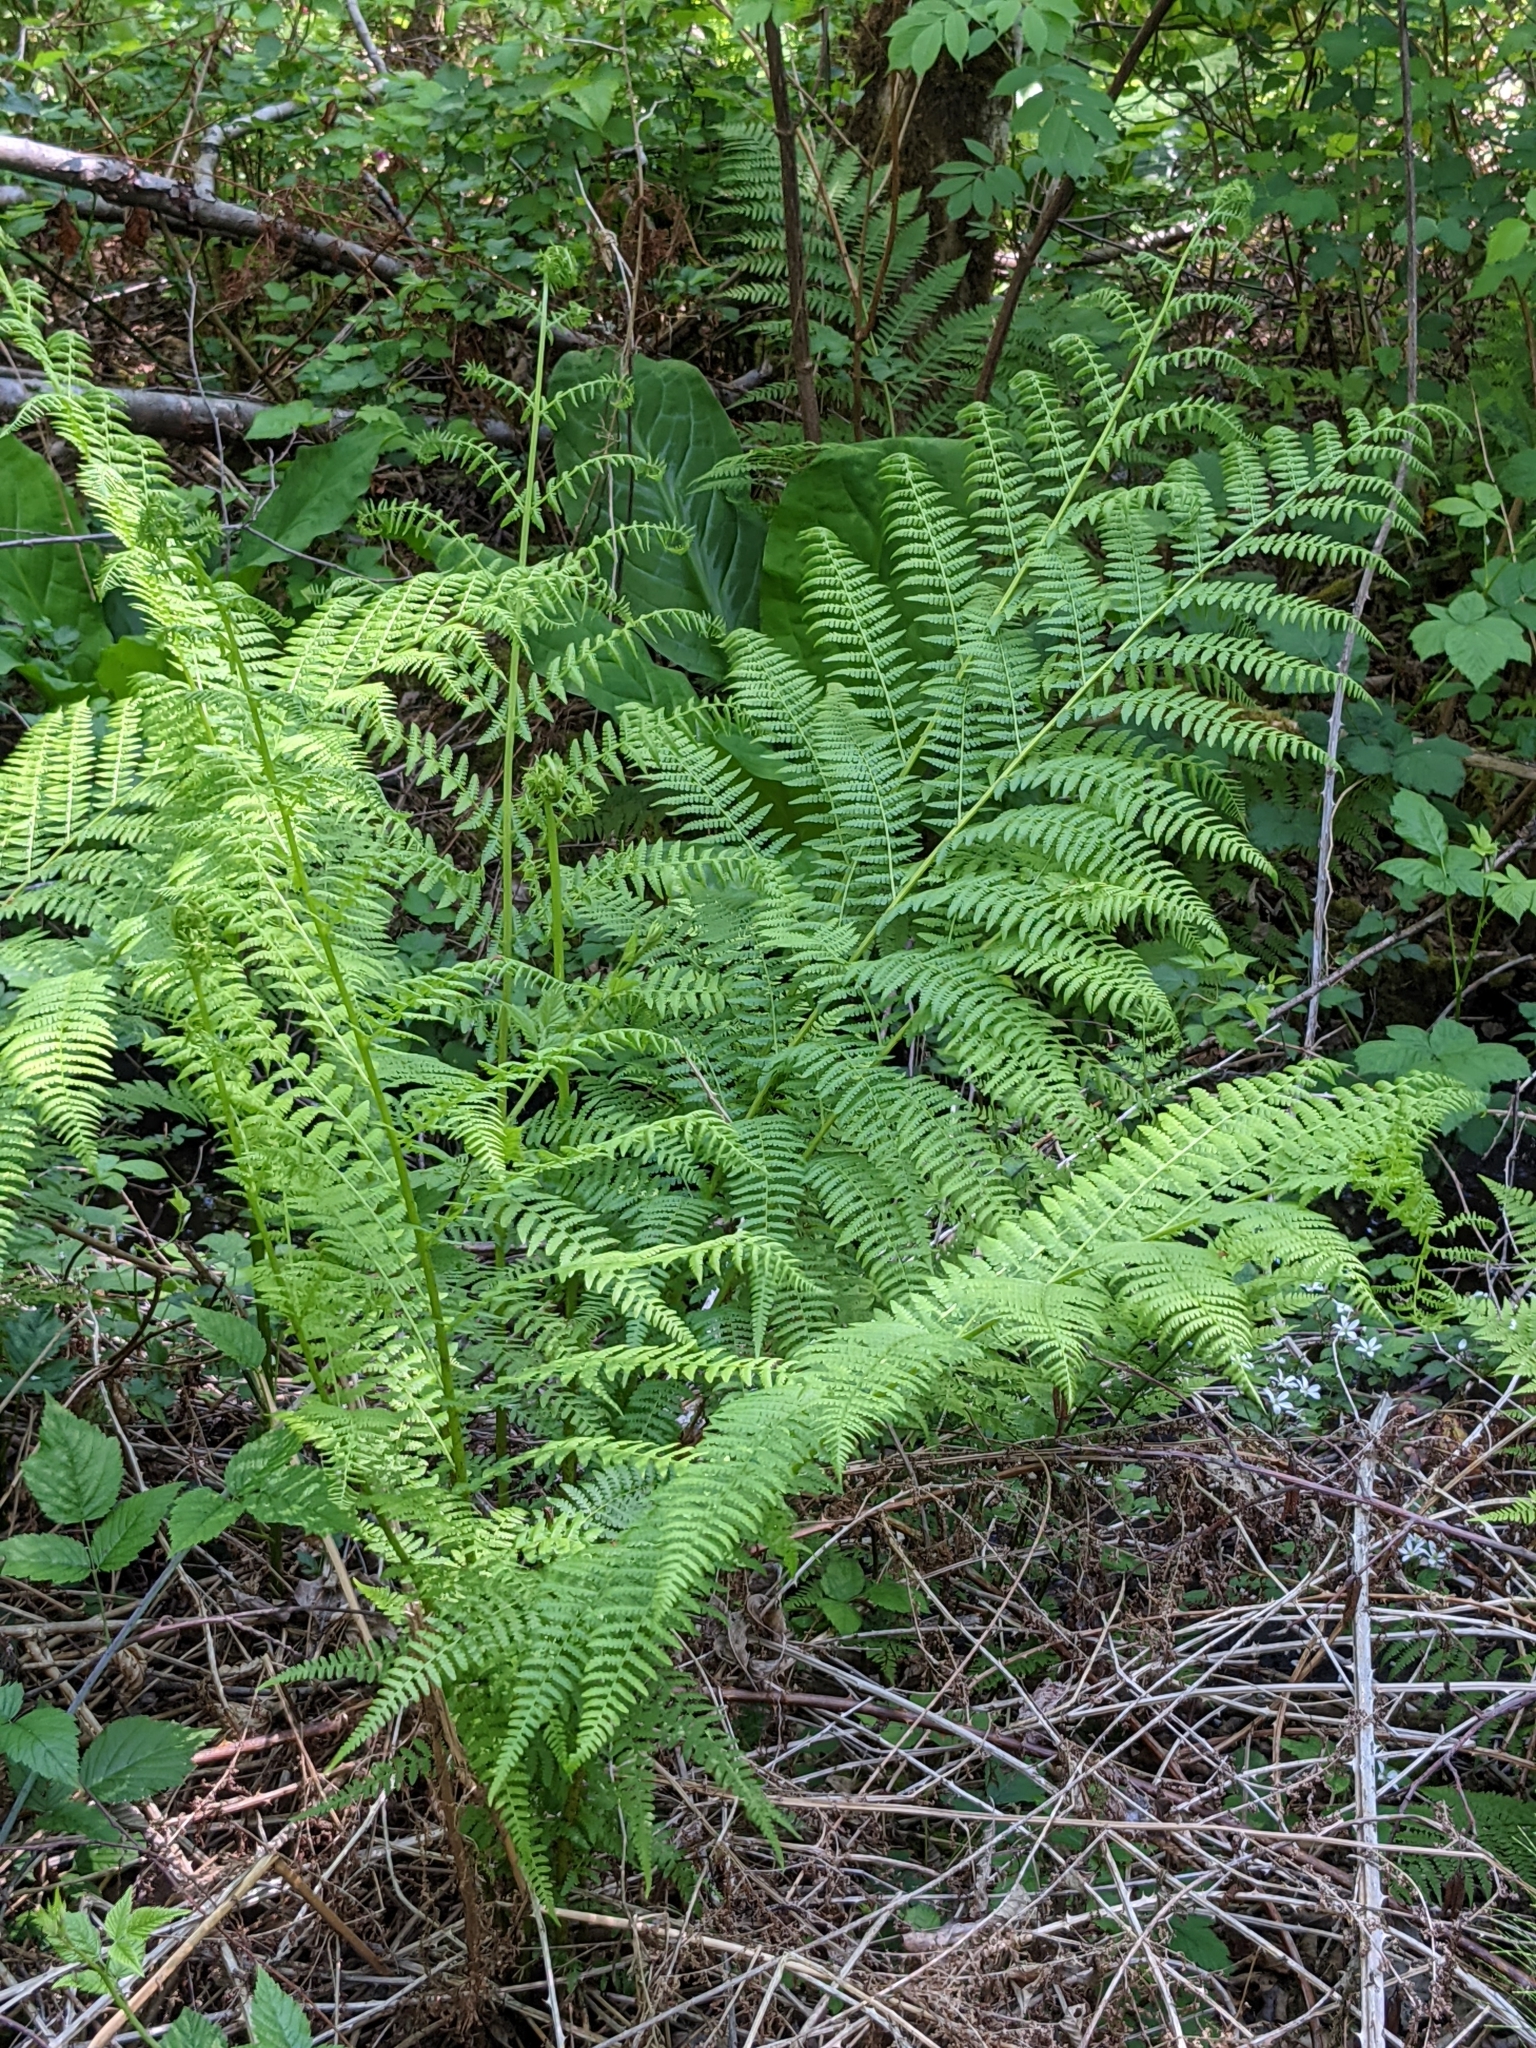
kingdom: Plantae
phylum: Tracheophyta
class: Polypodiopsida
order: Polypodiales
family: Athyriaceae
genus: Athyrium
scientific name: Athyrium filix-femina
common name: Lady fern
